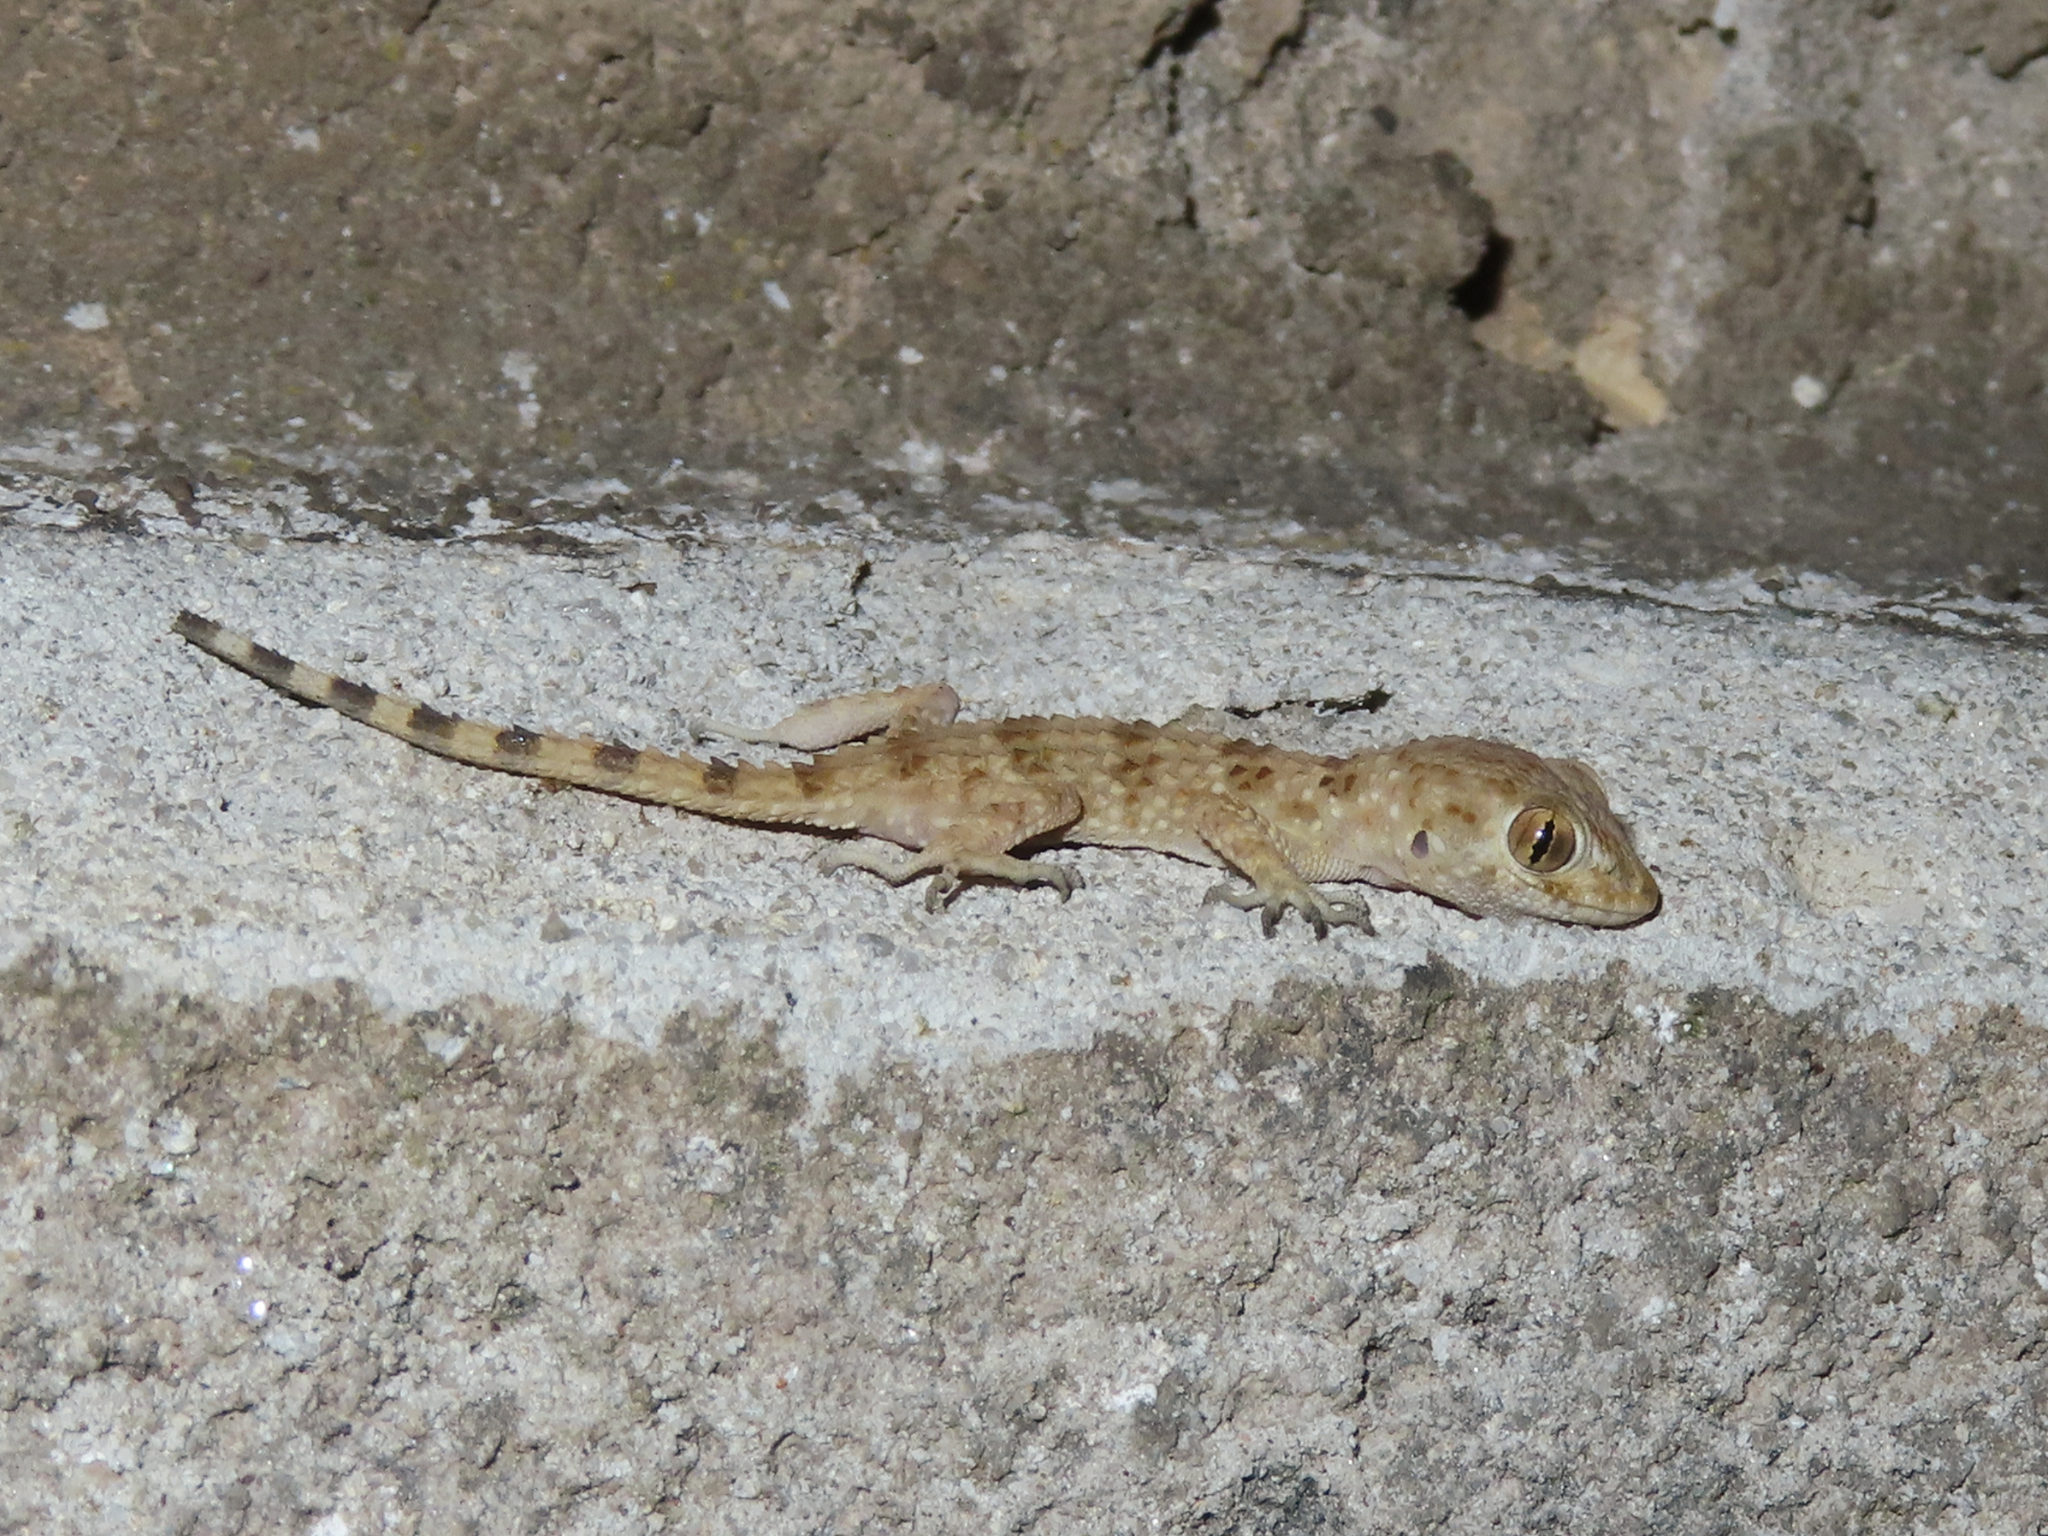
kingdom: Animalia
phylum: Chordata
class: Squamata
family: Gekkonidae
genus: Tenuidactylus
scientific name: Tenuidactylus caspius
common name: Caspian bent-toed gecko
